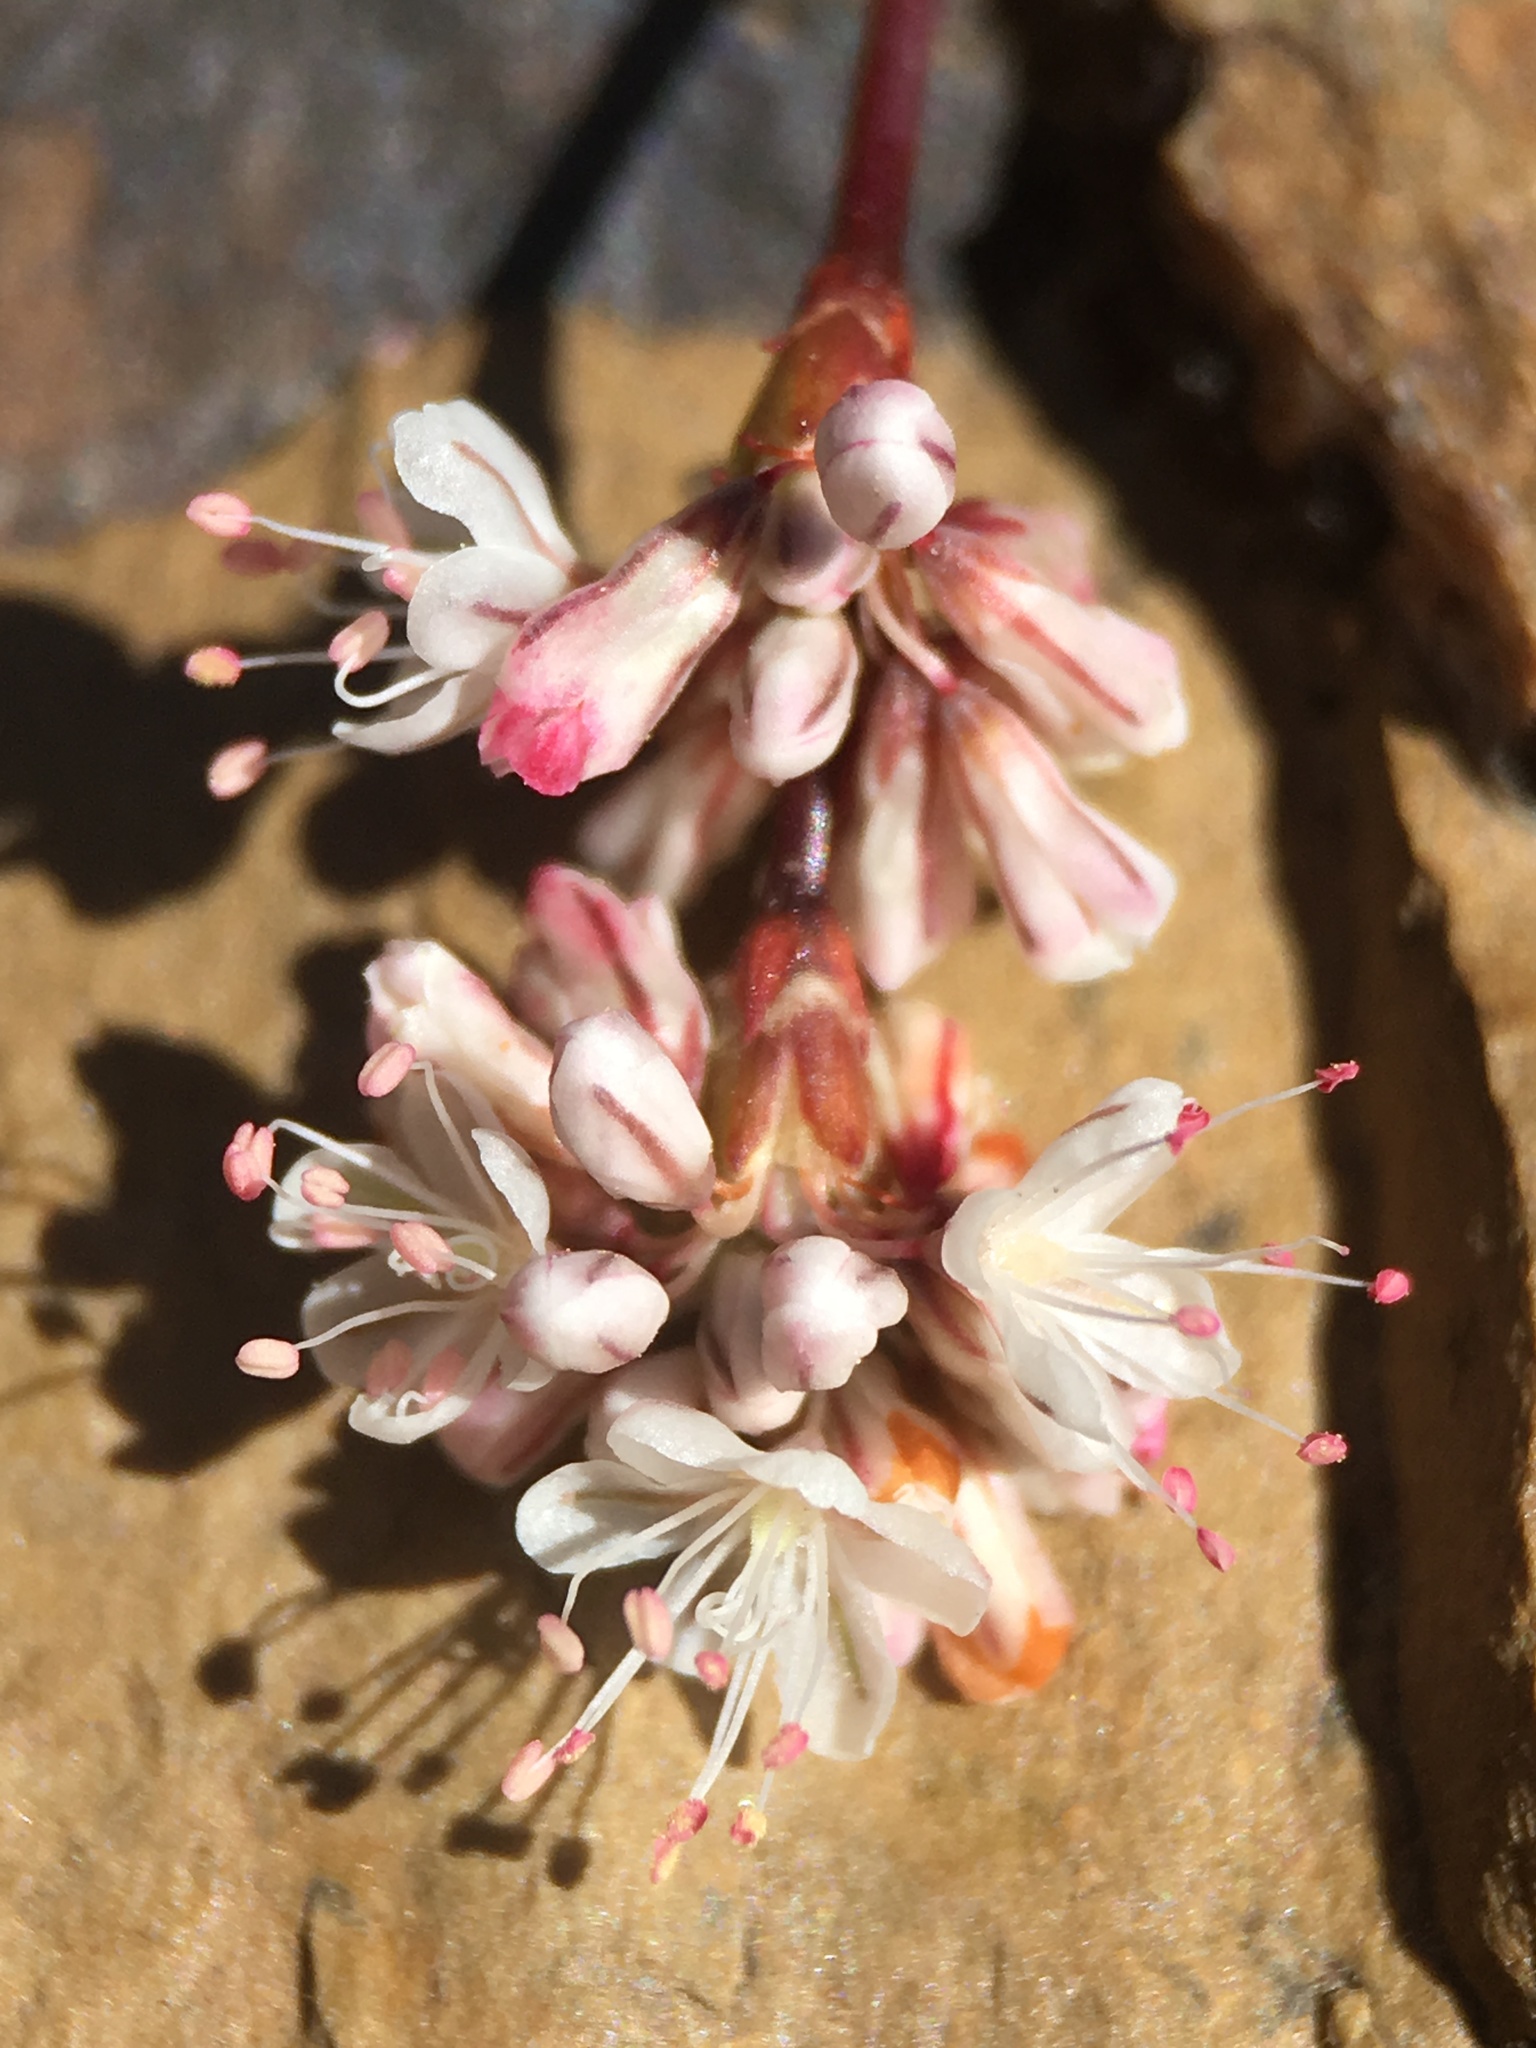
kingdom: Plantae
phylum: Tracheophyta
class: Magnoliopsida
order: Caryophyllales
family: Polygonaceae
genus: Eriogonum
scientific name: Eriogonum wrightii
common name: Bastard-sage
